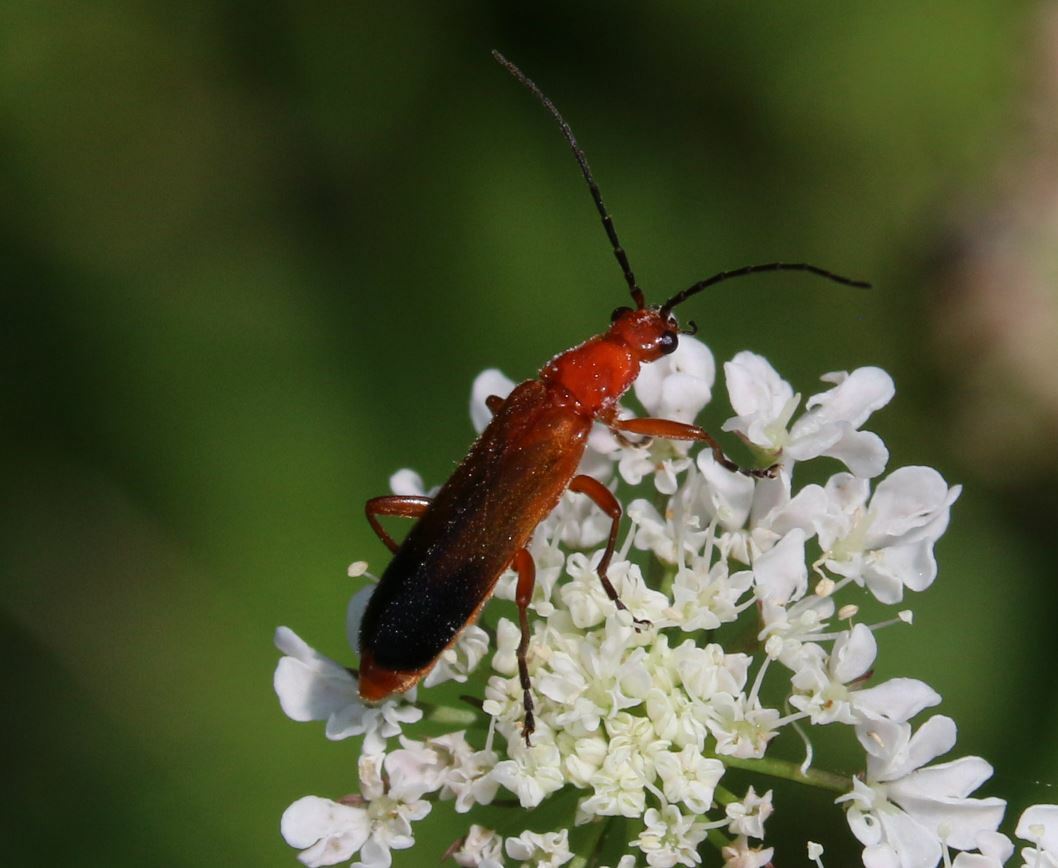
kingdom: Animalia
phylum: Arthropoda
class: Insecta
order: Coleoptera
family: Cantharidae
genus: Rhagonycha
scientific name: Rhagonycha fulva
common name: Common red soldier beetle
